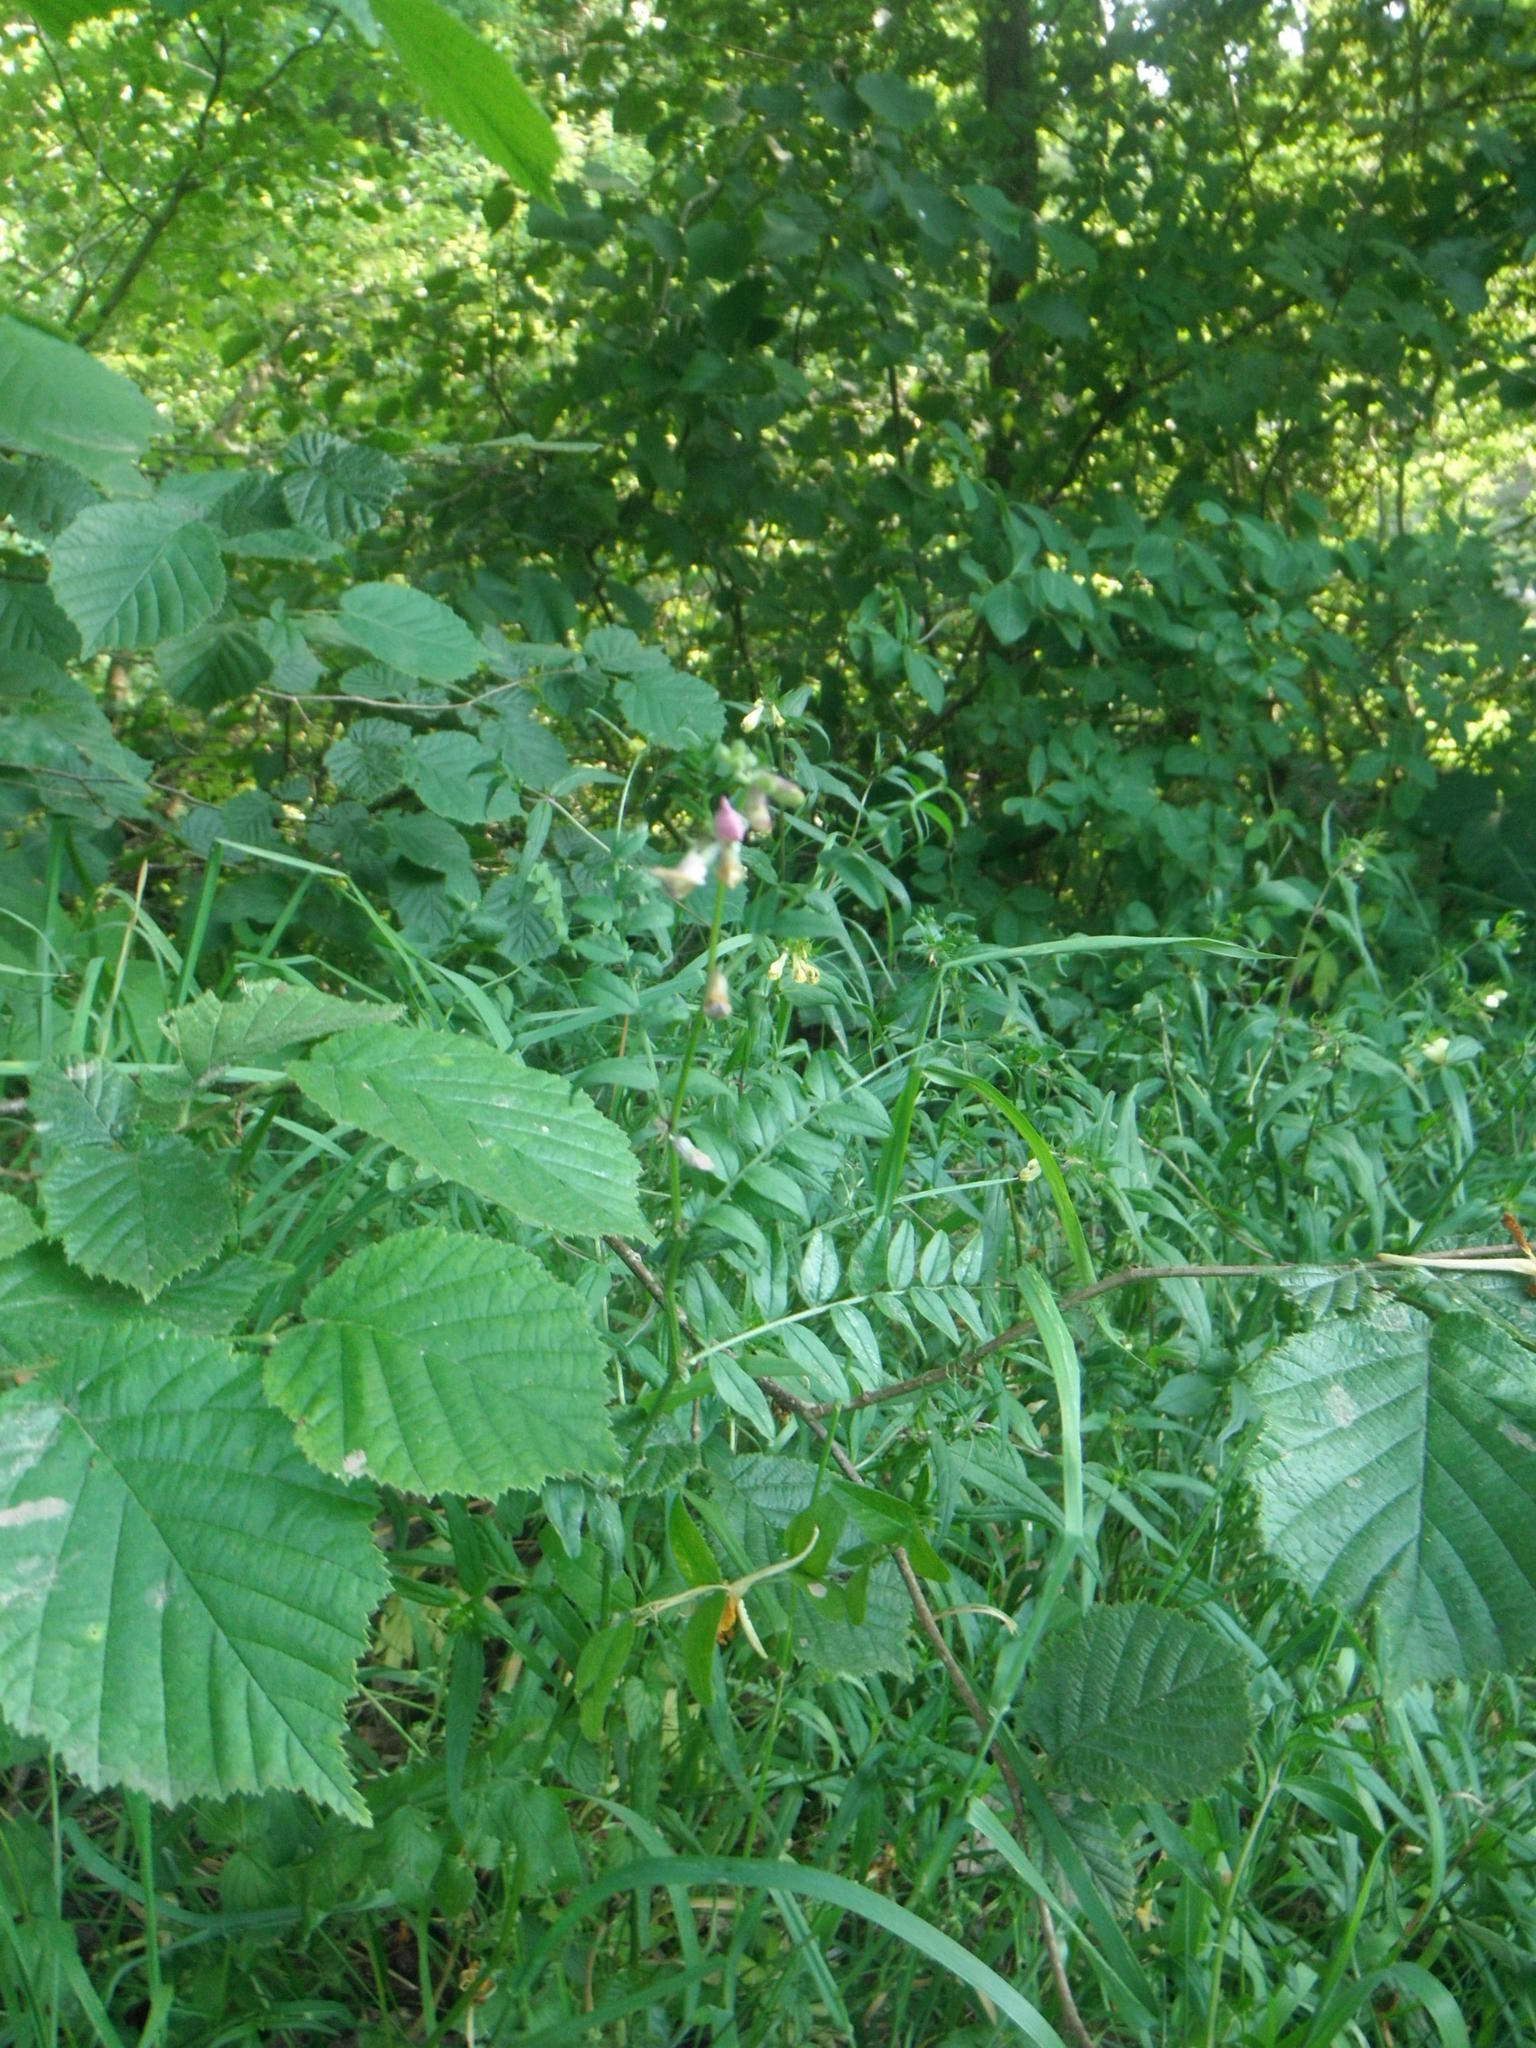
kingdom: Plantae
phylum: Tracheophyta
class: Magnoliopsida
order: Fabales
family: Fabaceae
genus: Vicia
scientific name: Vicia sepium
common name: Bush vetch
